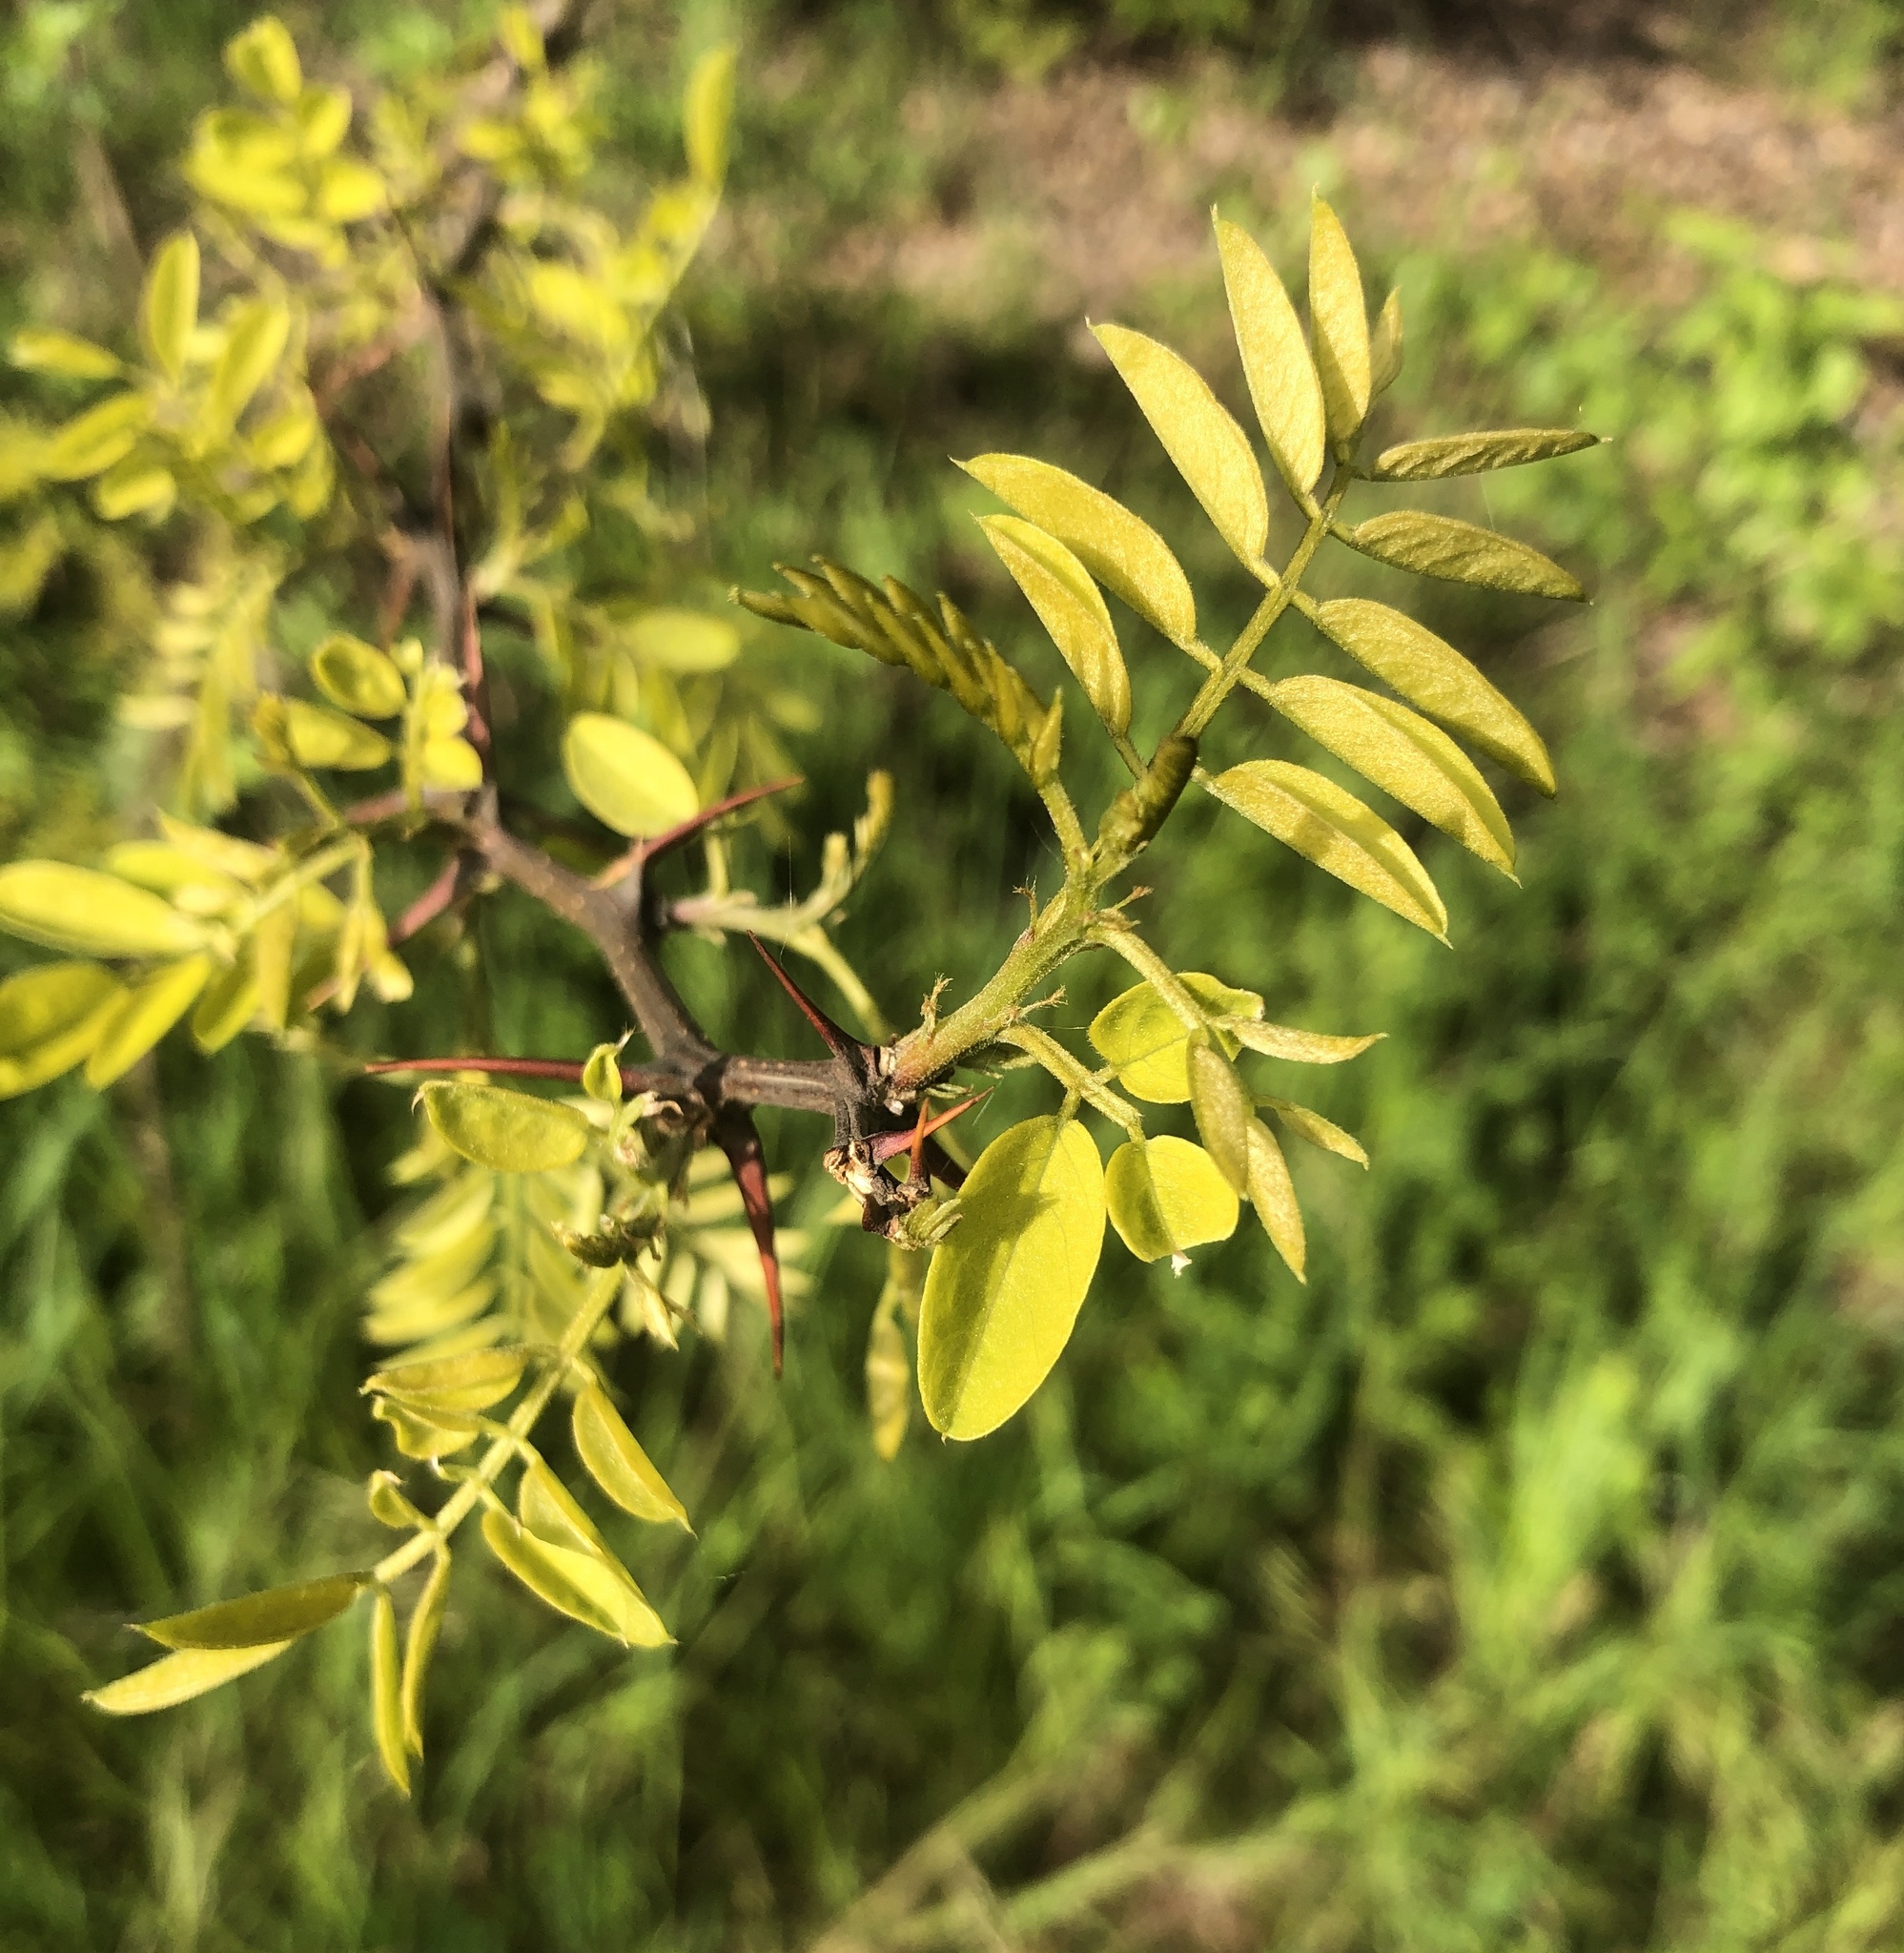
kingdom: Plantae
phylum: Tracheophyta
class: Magnoliopsida
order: Fabales
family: Fabaceae
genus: Robinia
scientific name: Robinia pseudoacacia
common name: Black locust
